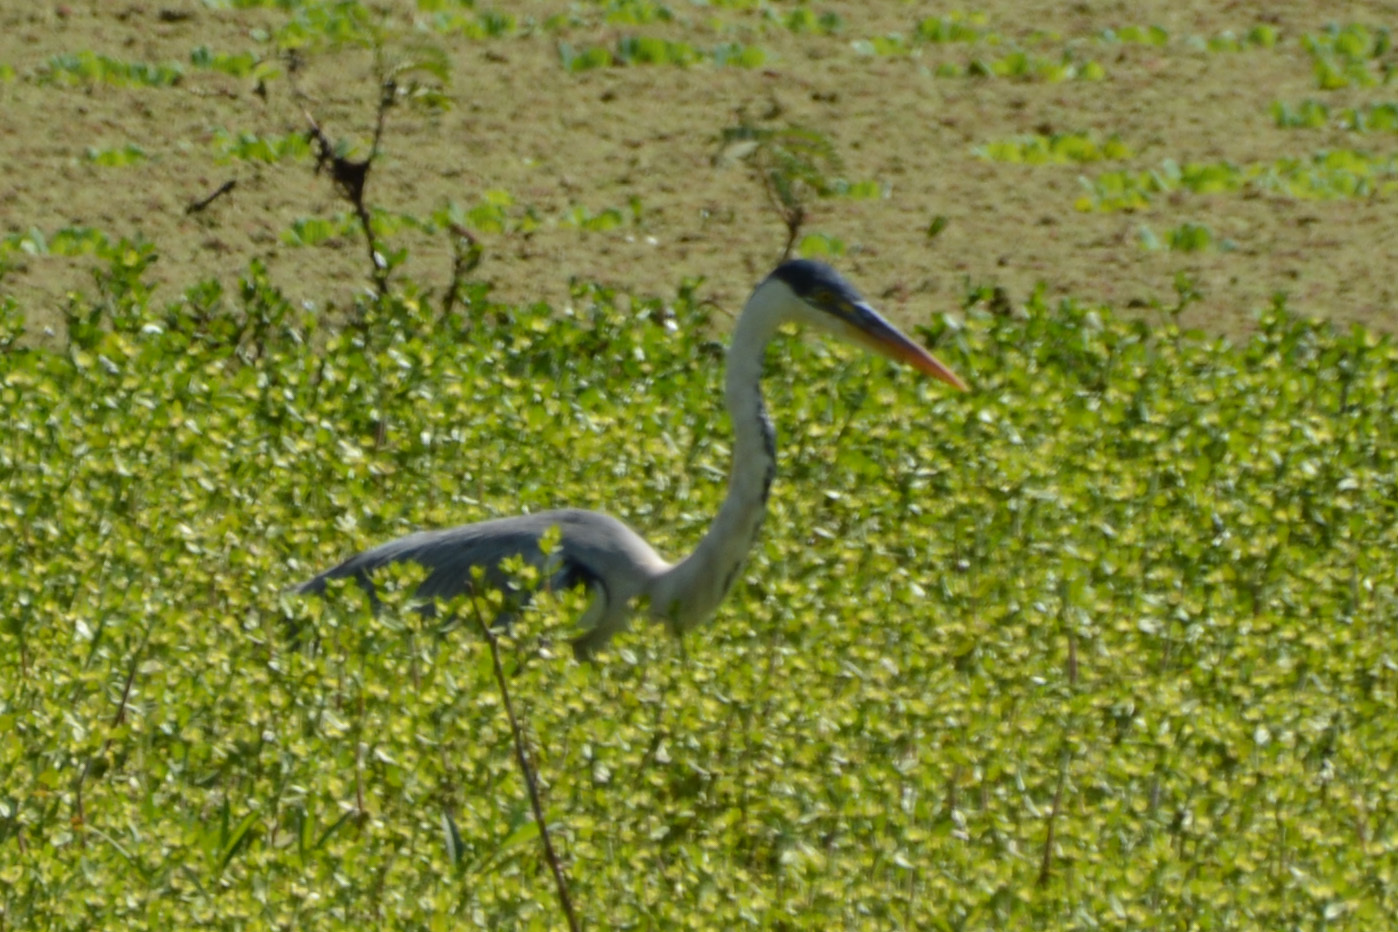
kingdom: Animalia
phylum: Chordata
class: Aves
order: Pelecaniformes
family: Ardeidae
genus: Ardea
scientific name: Ardea cocoi
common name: Cocoi heron
